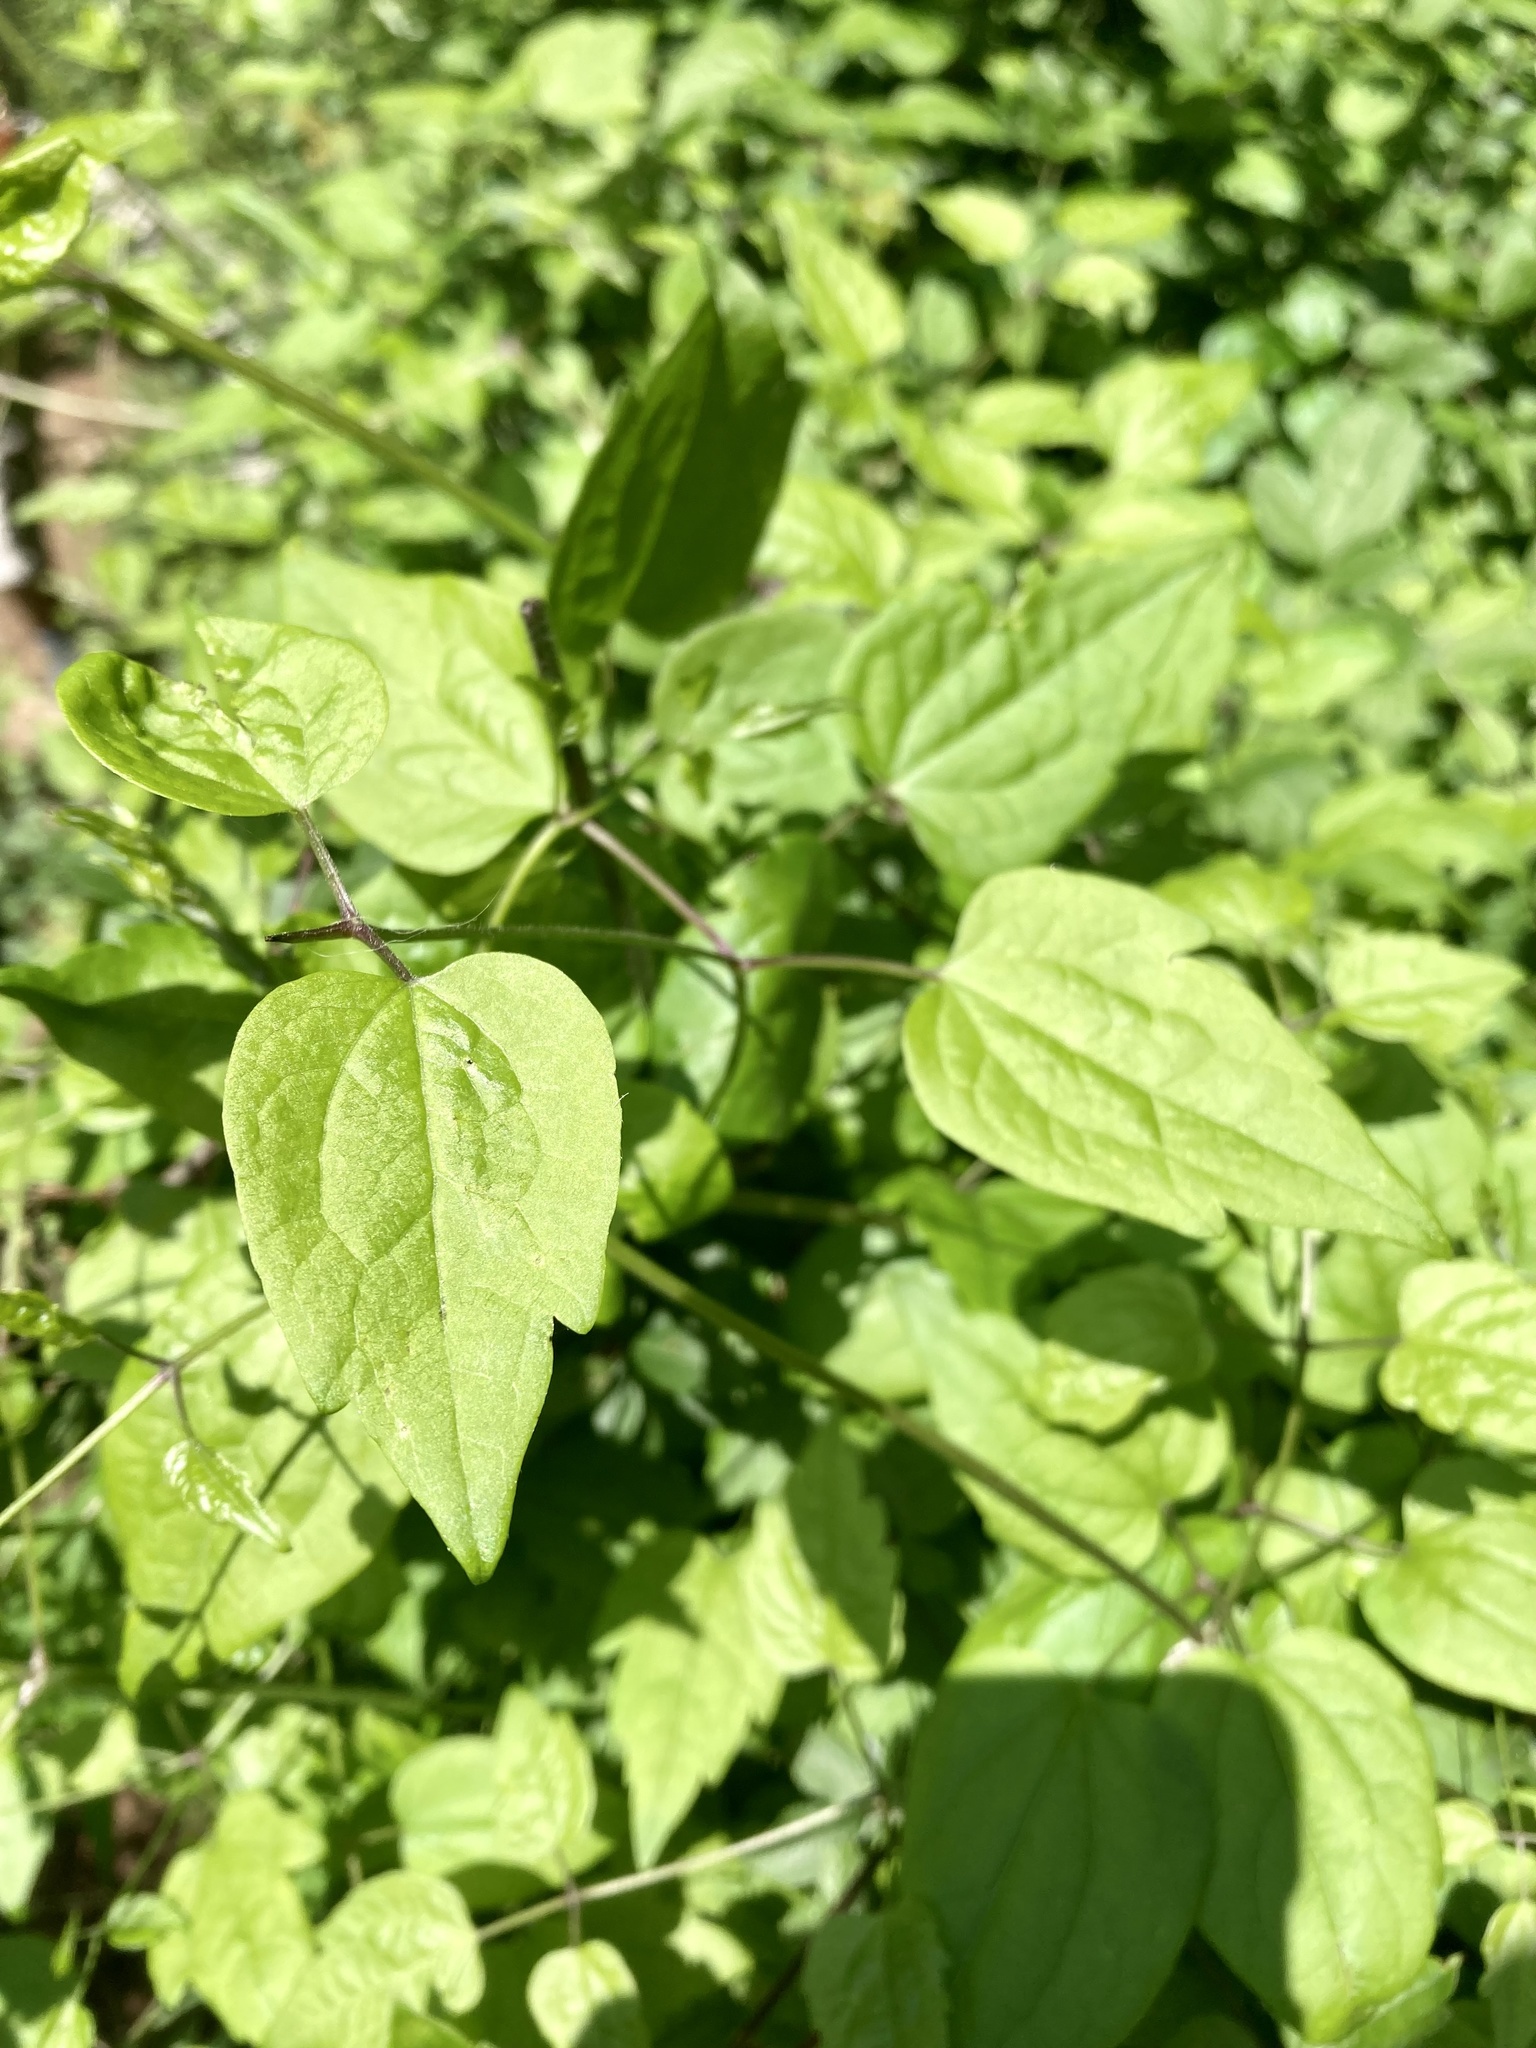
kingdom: Plantae
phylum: Tracheophyta
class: Magnoliopsida
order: Ranunculales
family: Ranunculaceae
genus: Clematis
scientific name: Clematis vitalba
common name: Evergreen clematis
